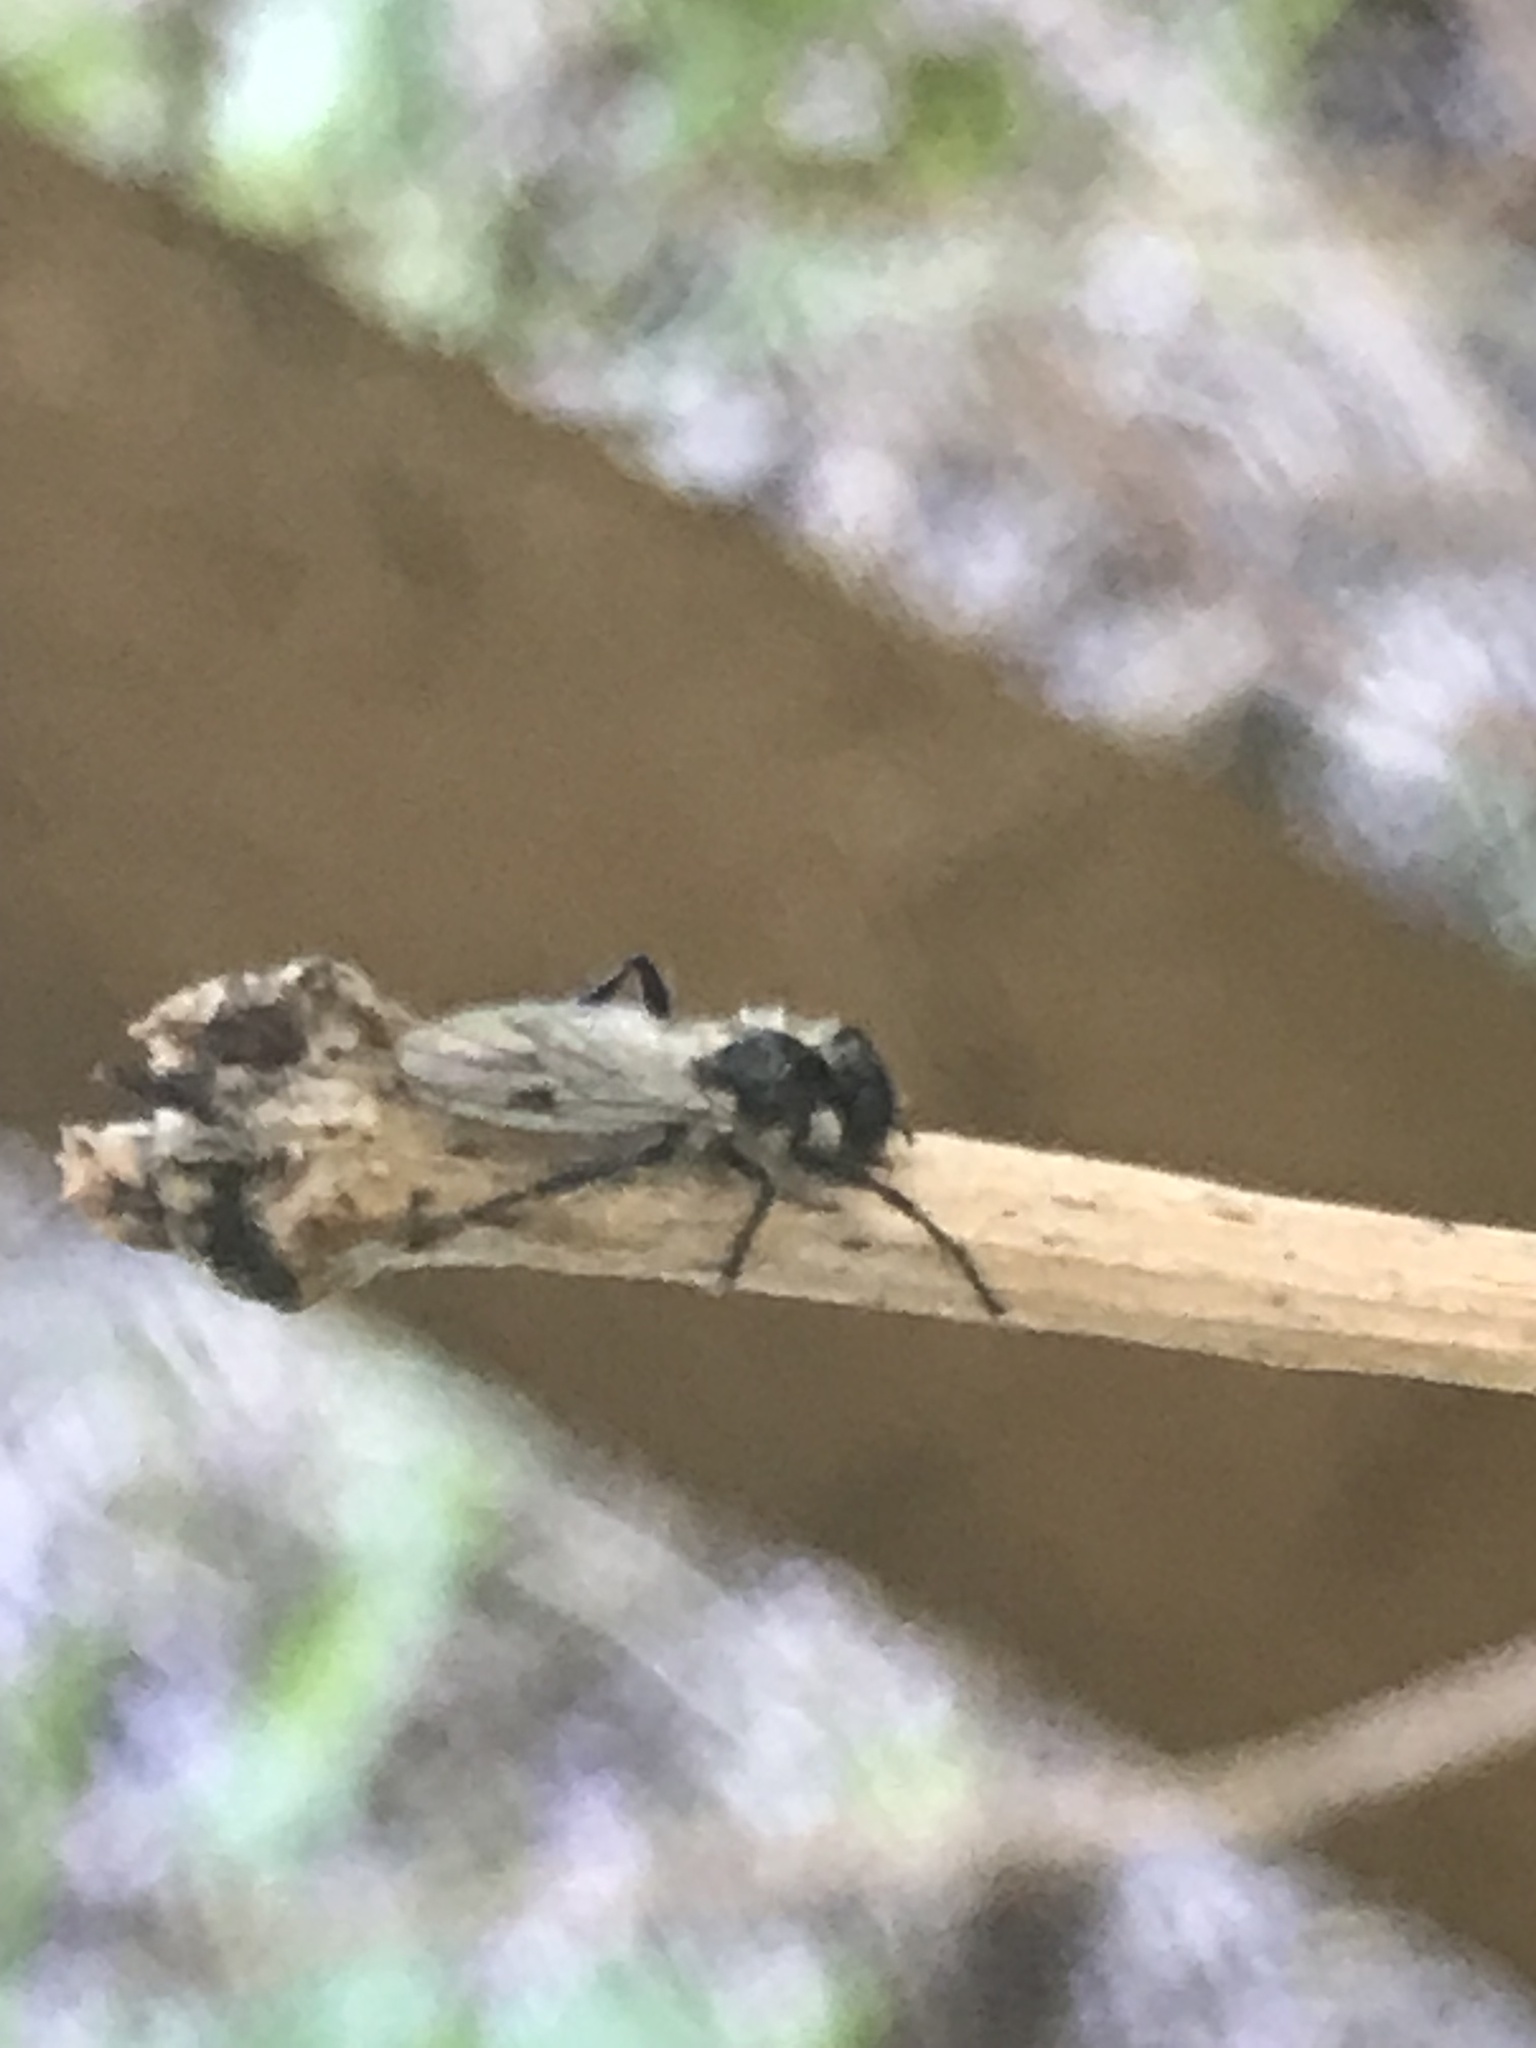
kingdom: Animalia
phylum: Arthropoda
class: Insecta
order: Diptera
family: Bibionidae
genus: Bibio
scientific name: Bibio albipennis
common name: White-winged march fly
